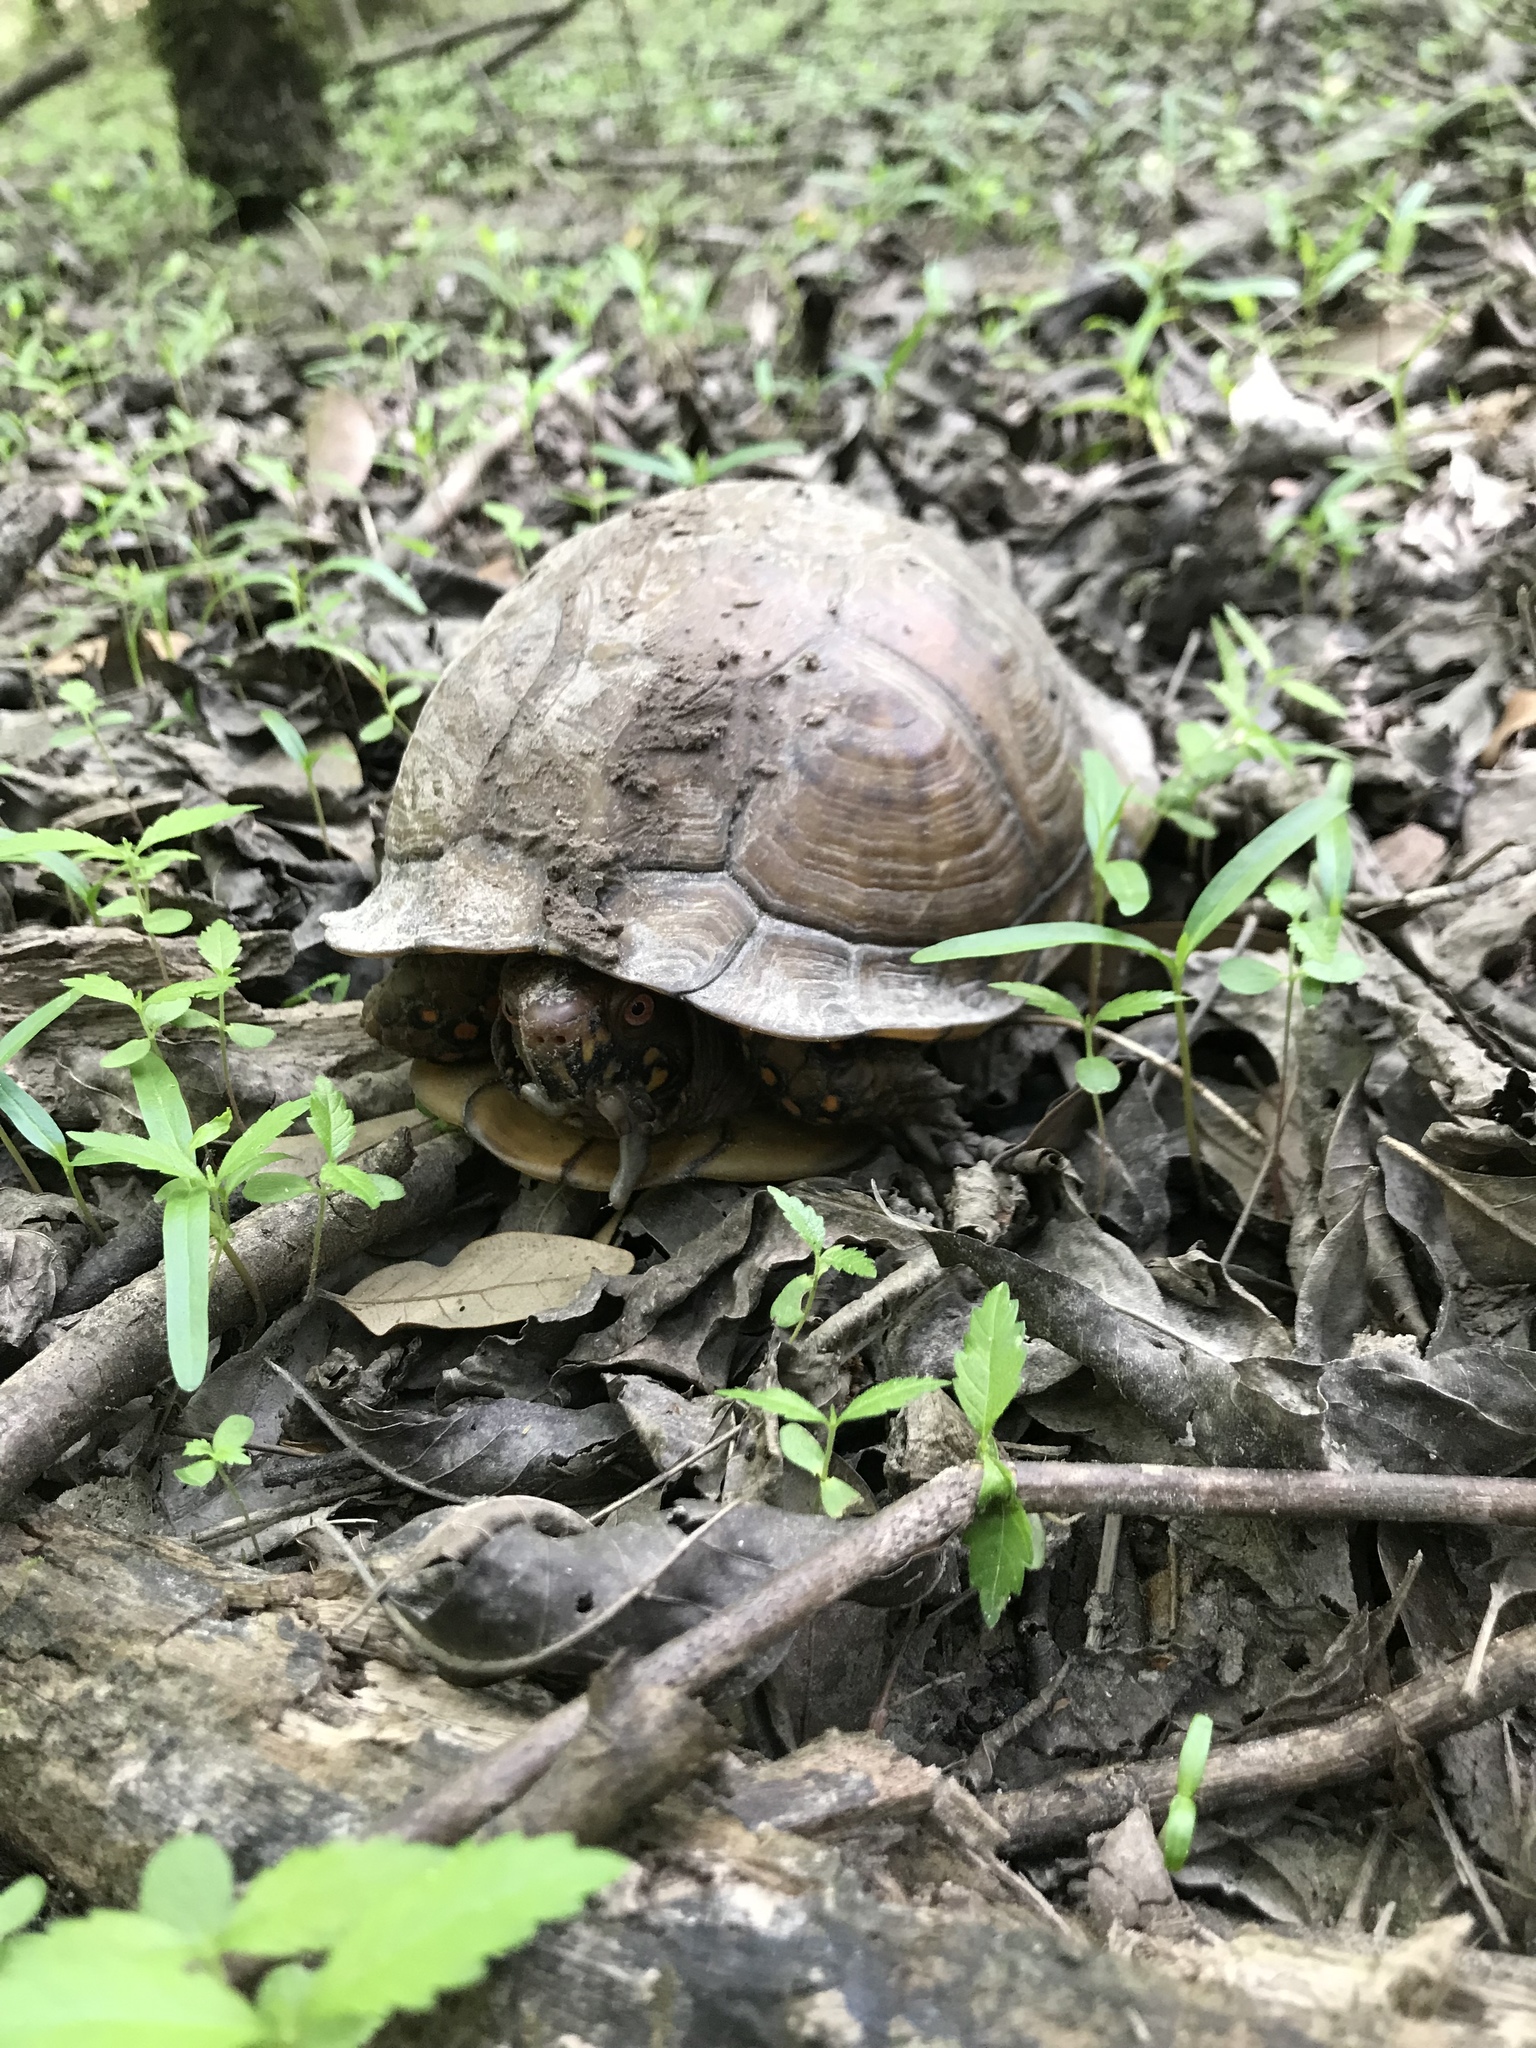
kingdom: Animalia
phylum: Chordata
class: Testudines
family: Emydidae
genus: Terrapene
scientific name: Terrapene carolina
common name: Common box turtle
